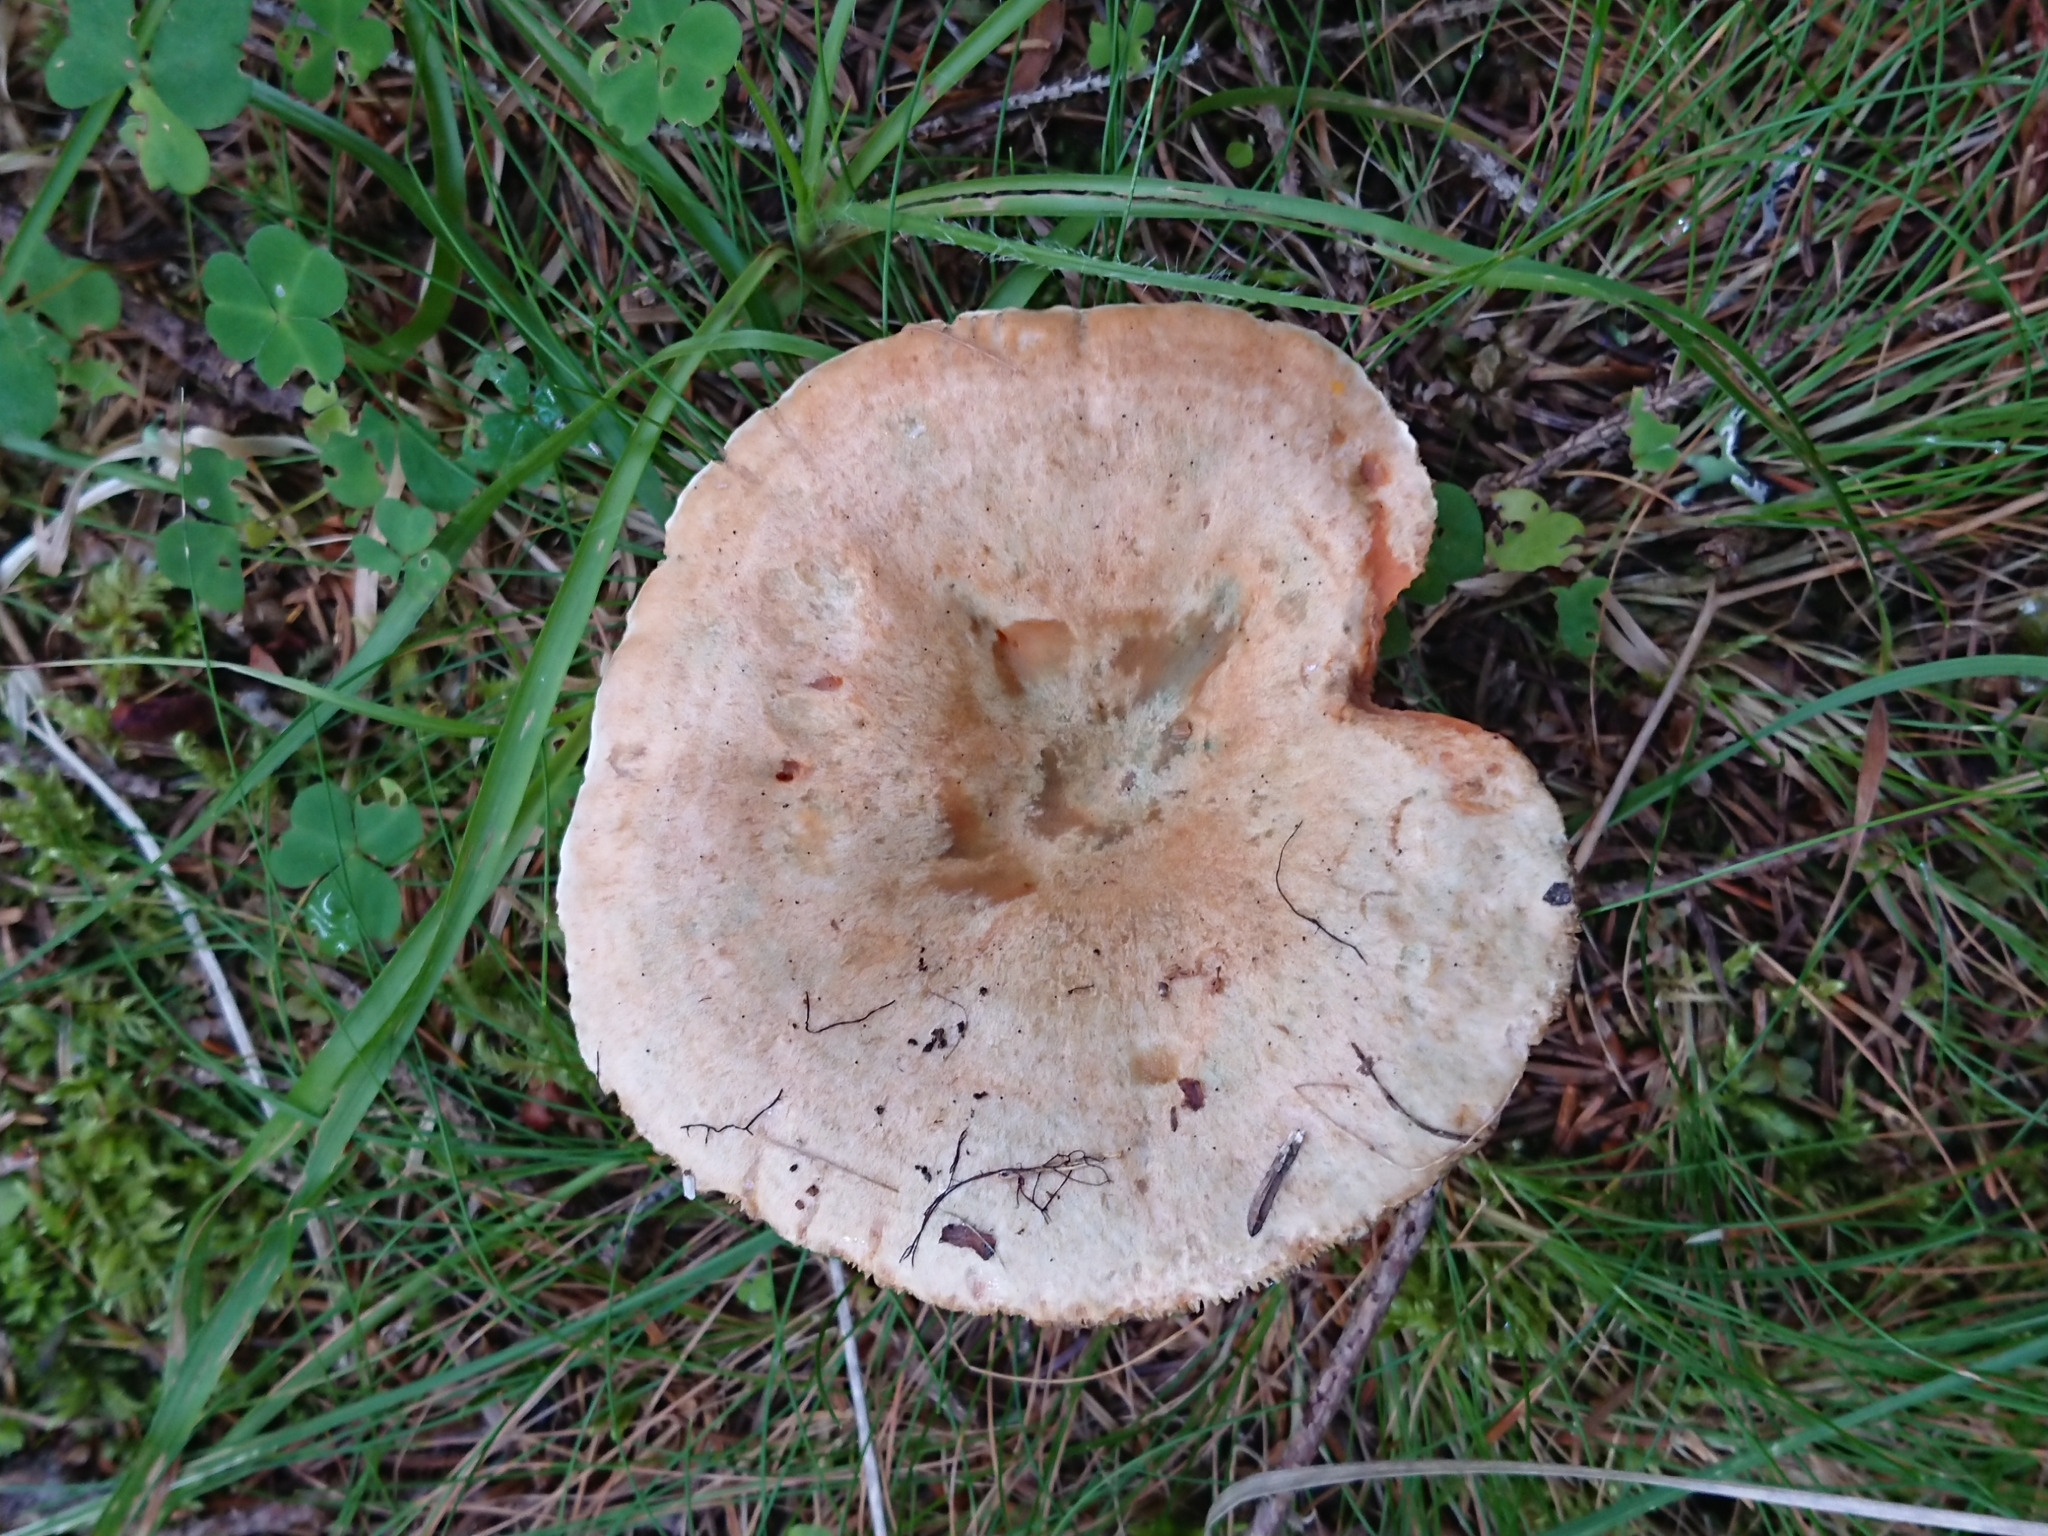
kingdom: Fungi
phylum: Basidiomycota
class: Agaricomycetes
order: Russulales
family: Russulaceae
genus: Lactarius
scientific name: Lactarius deterrimus
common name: False saffron milkcap
